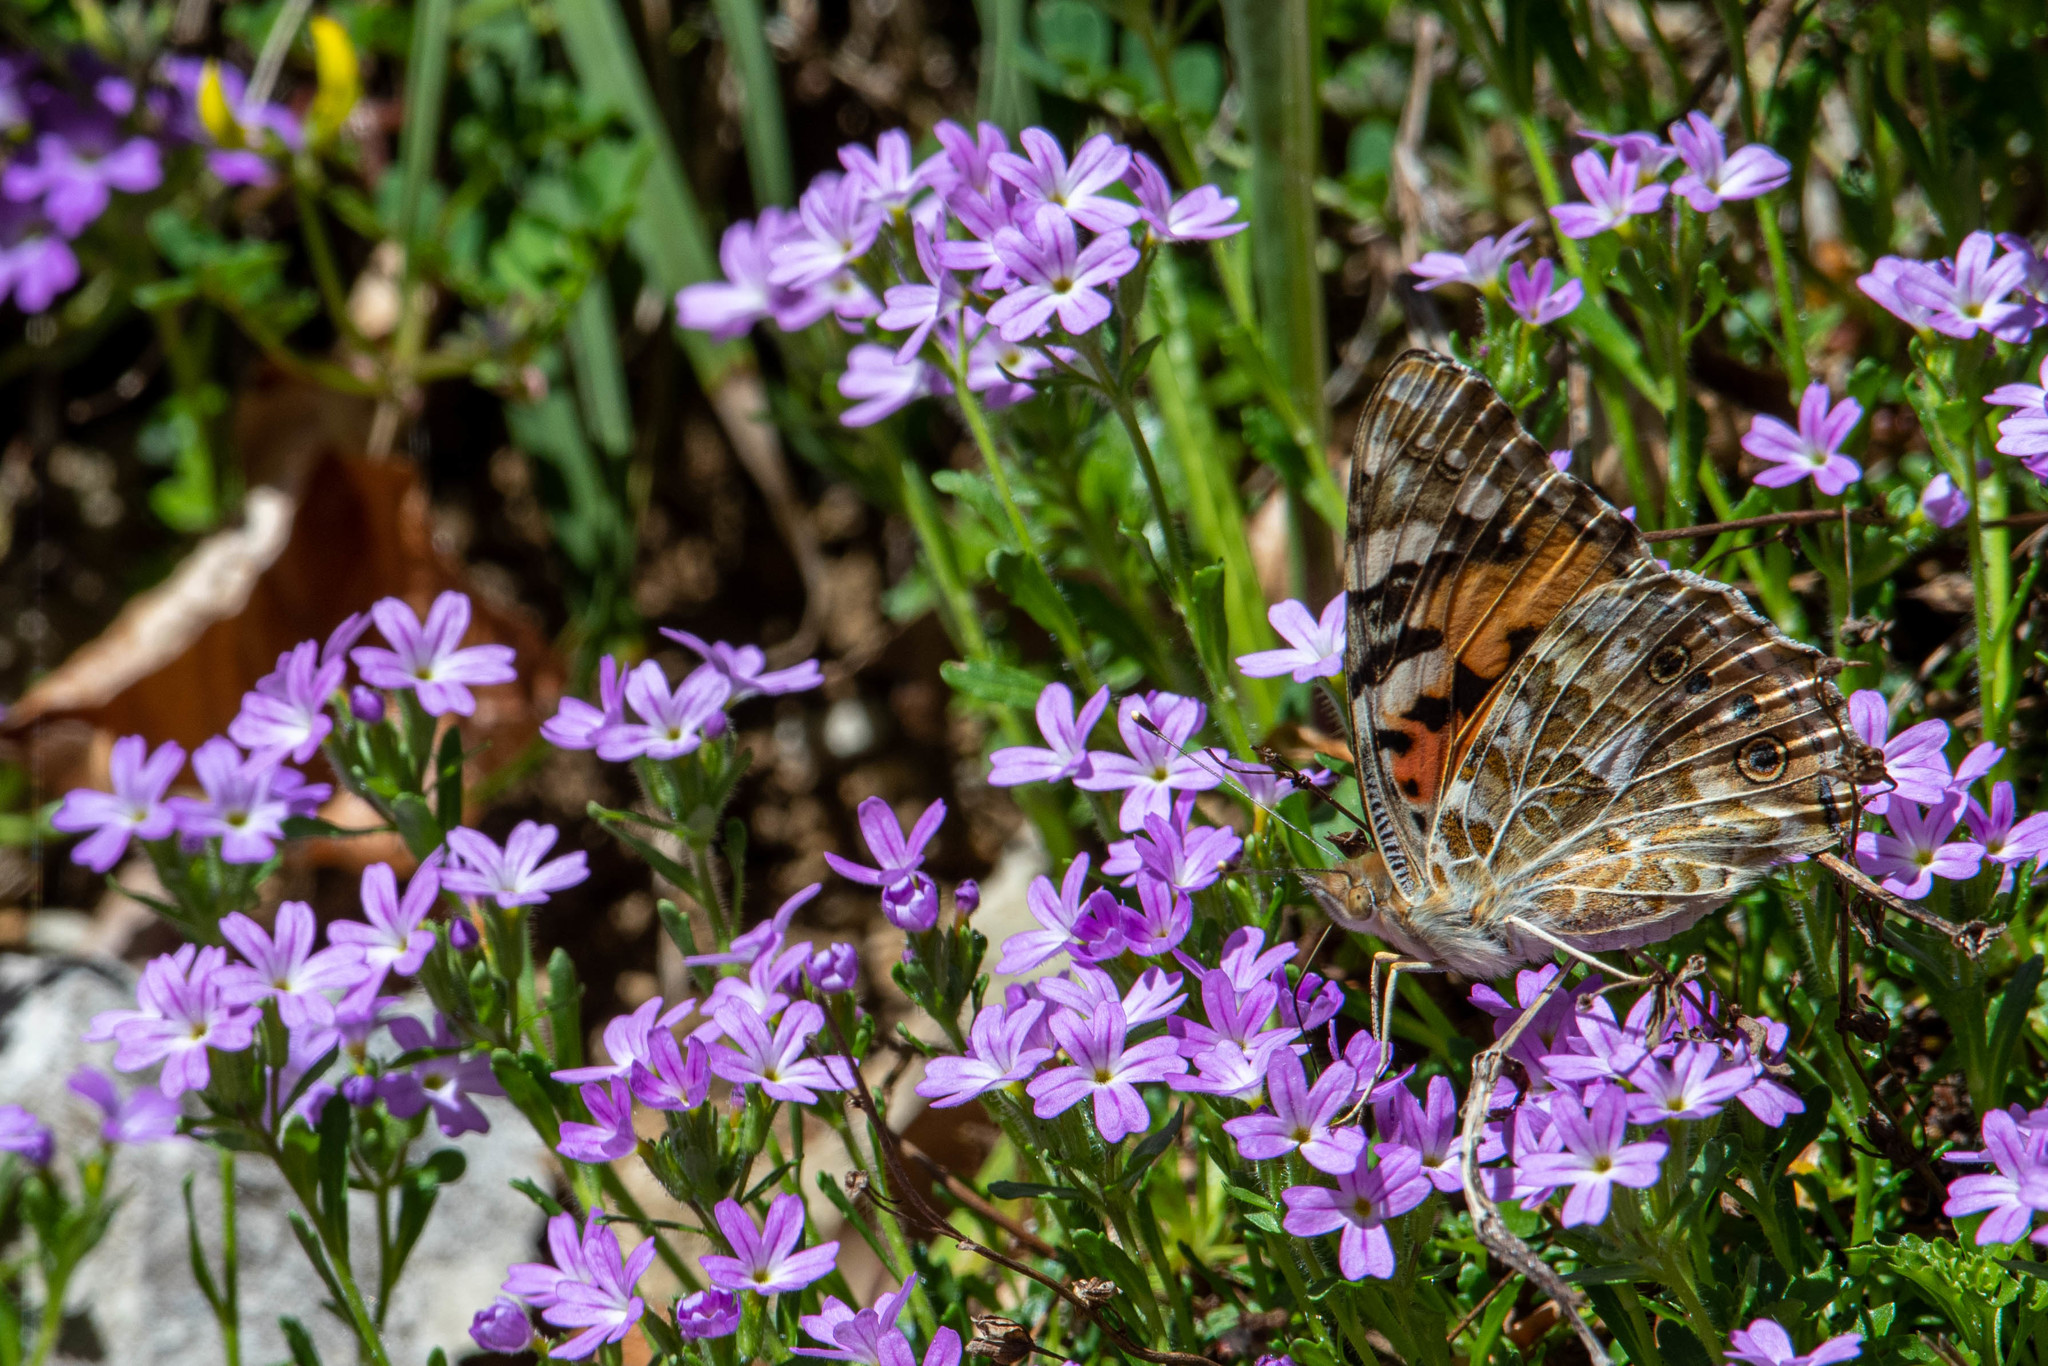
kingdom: Animalia
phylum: Arthropoda
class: Insecta
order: Lepidoptera
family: Nymphalidae
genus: Vanessa
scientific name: Vanessa cardui
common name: Painted lady
